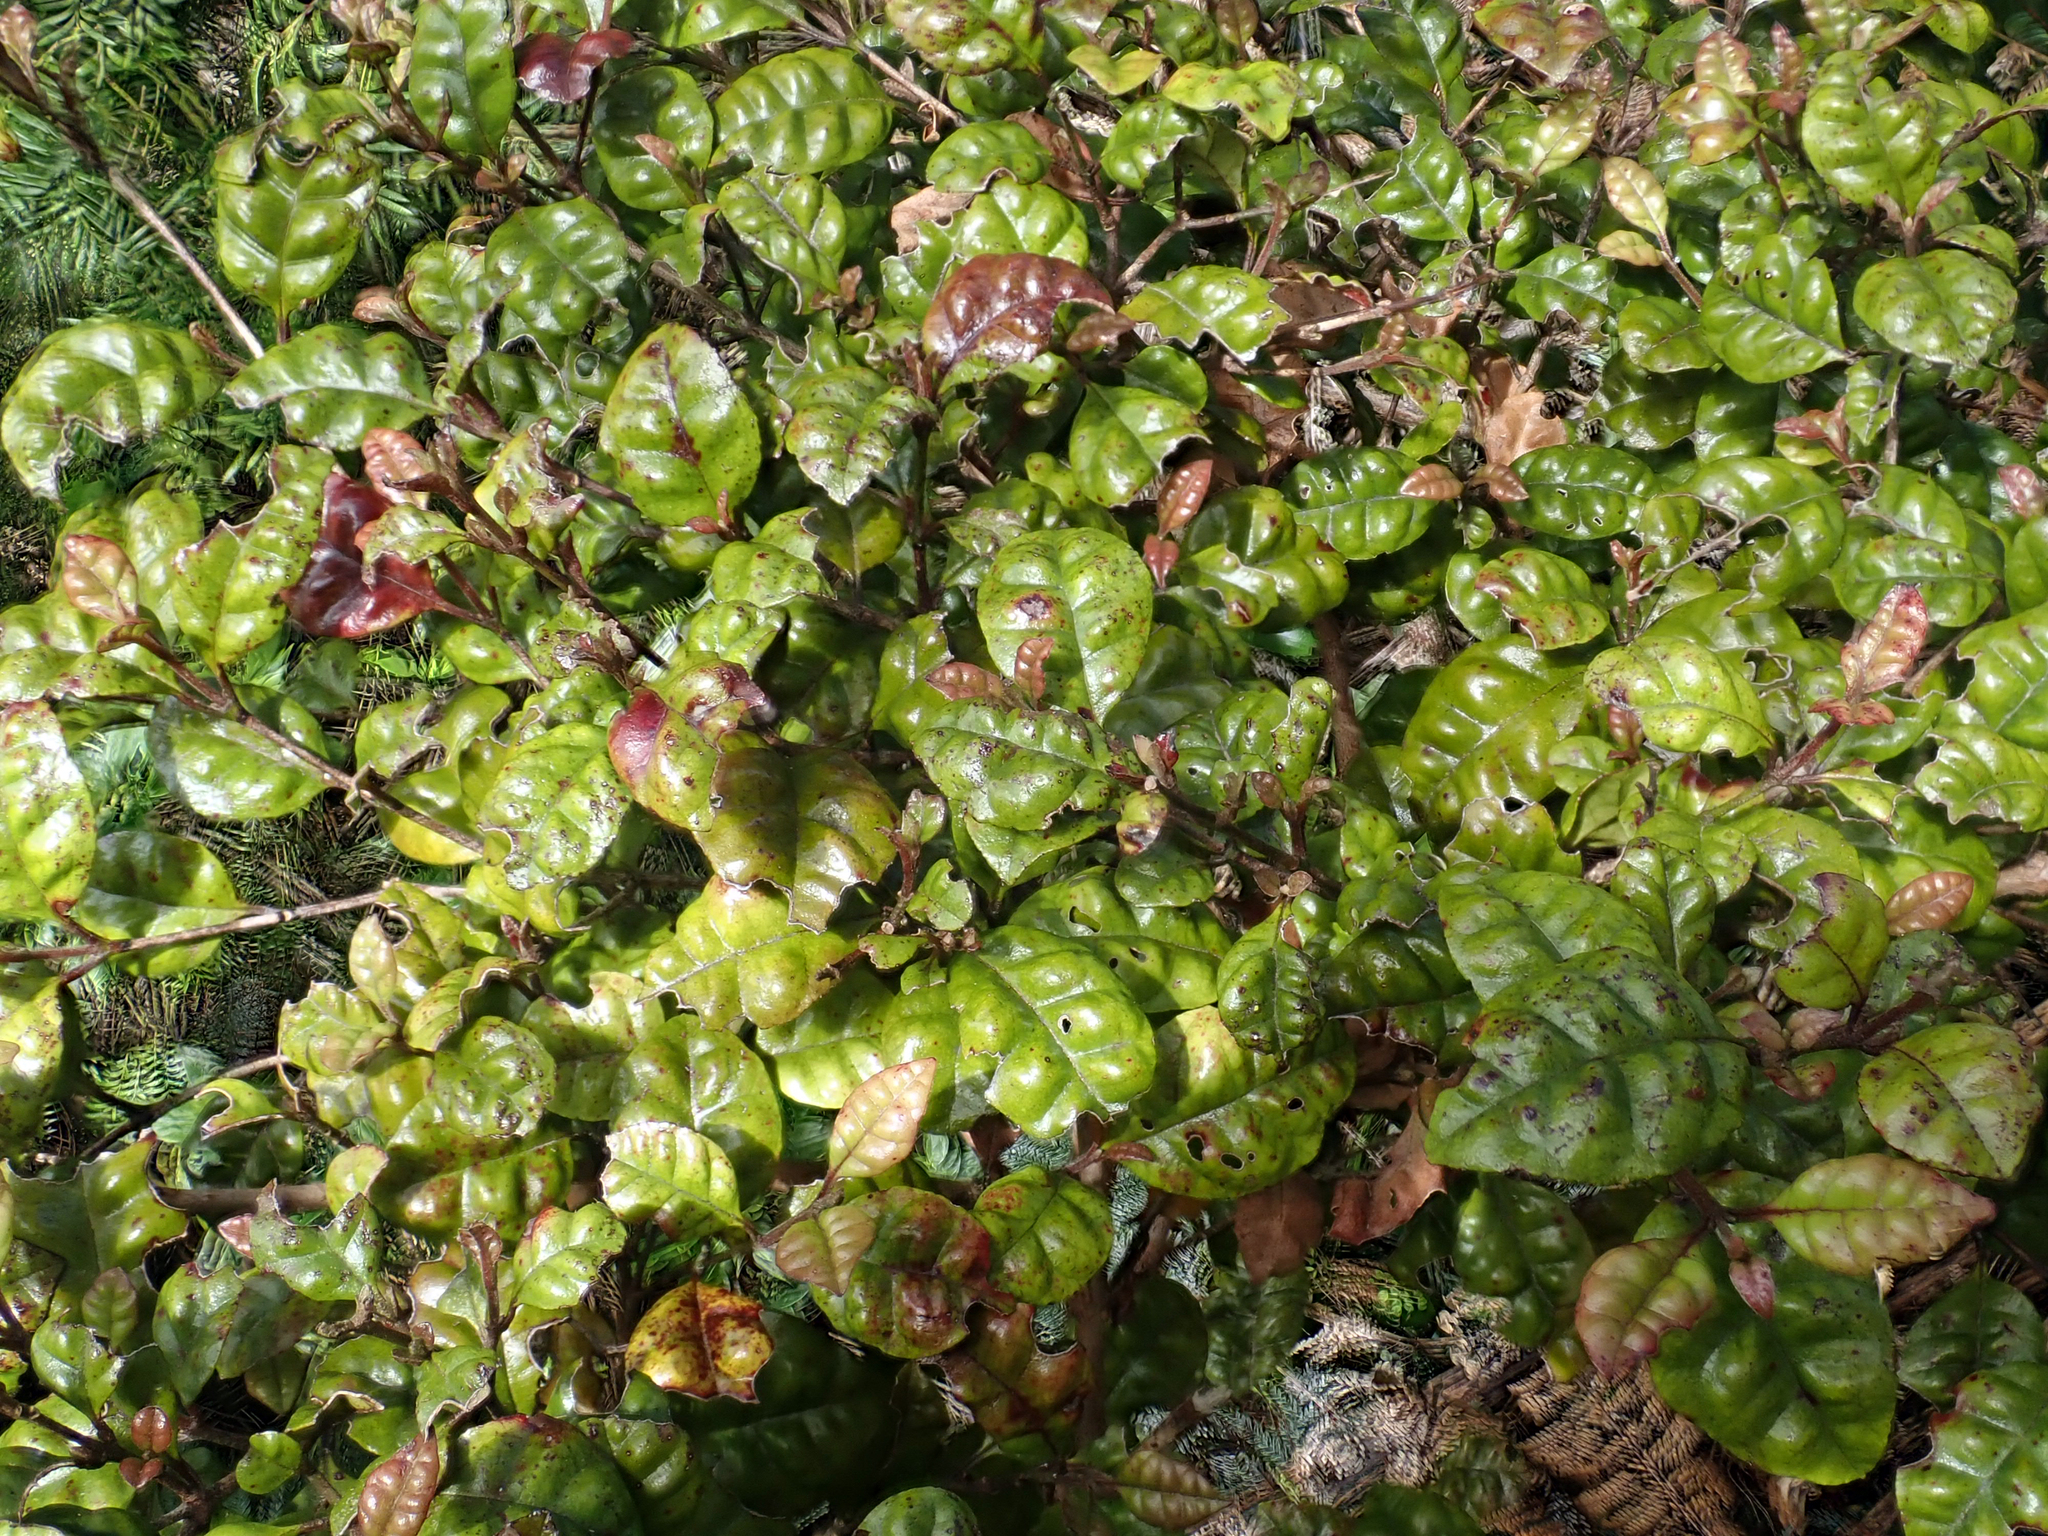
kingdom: Plantae
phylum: Tracheophyta
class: Magnoliopsida
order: Myrtales
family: Myrtaceae
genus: Lophomyrtus
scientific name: Lophomyrtus bullata
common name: Rama rama
